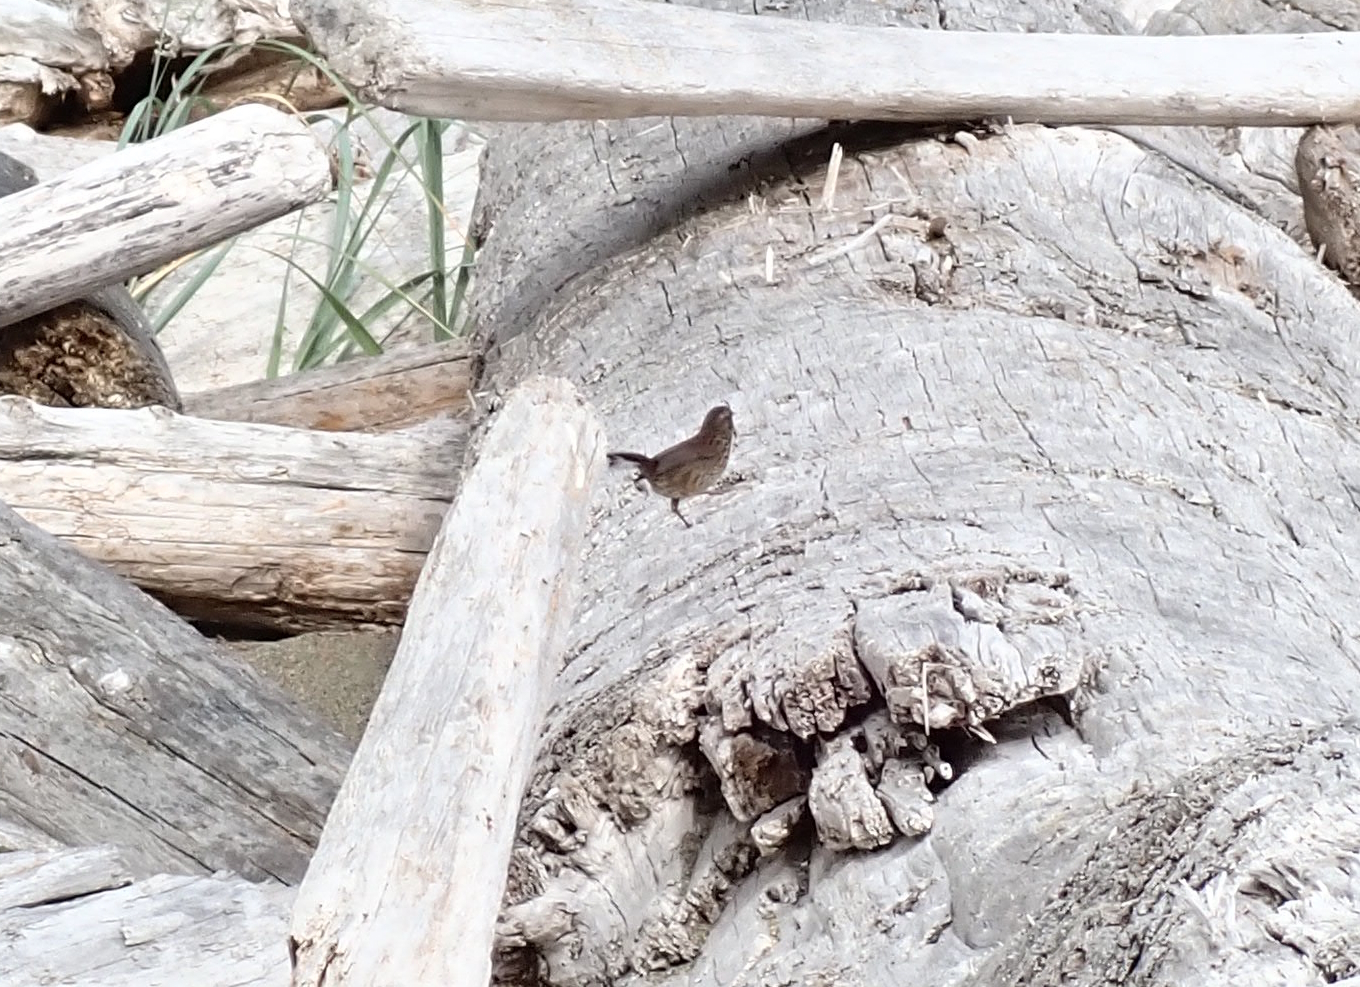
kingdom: Animalia
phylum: Chordata
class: Aves
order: Passeriformes
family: Passerellidae
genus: Melospiza
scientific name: Melospiza melodia
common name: Song sparrow
